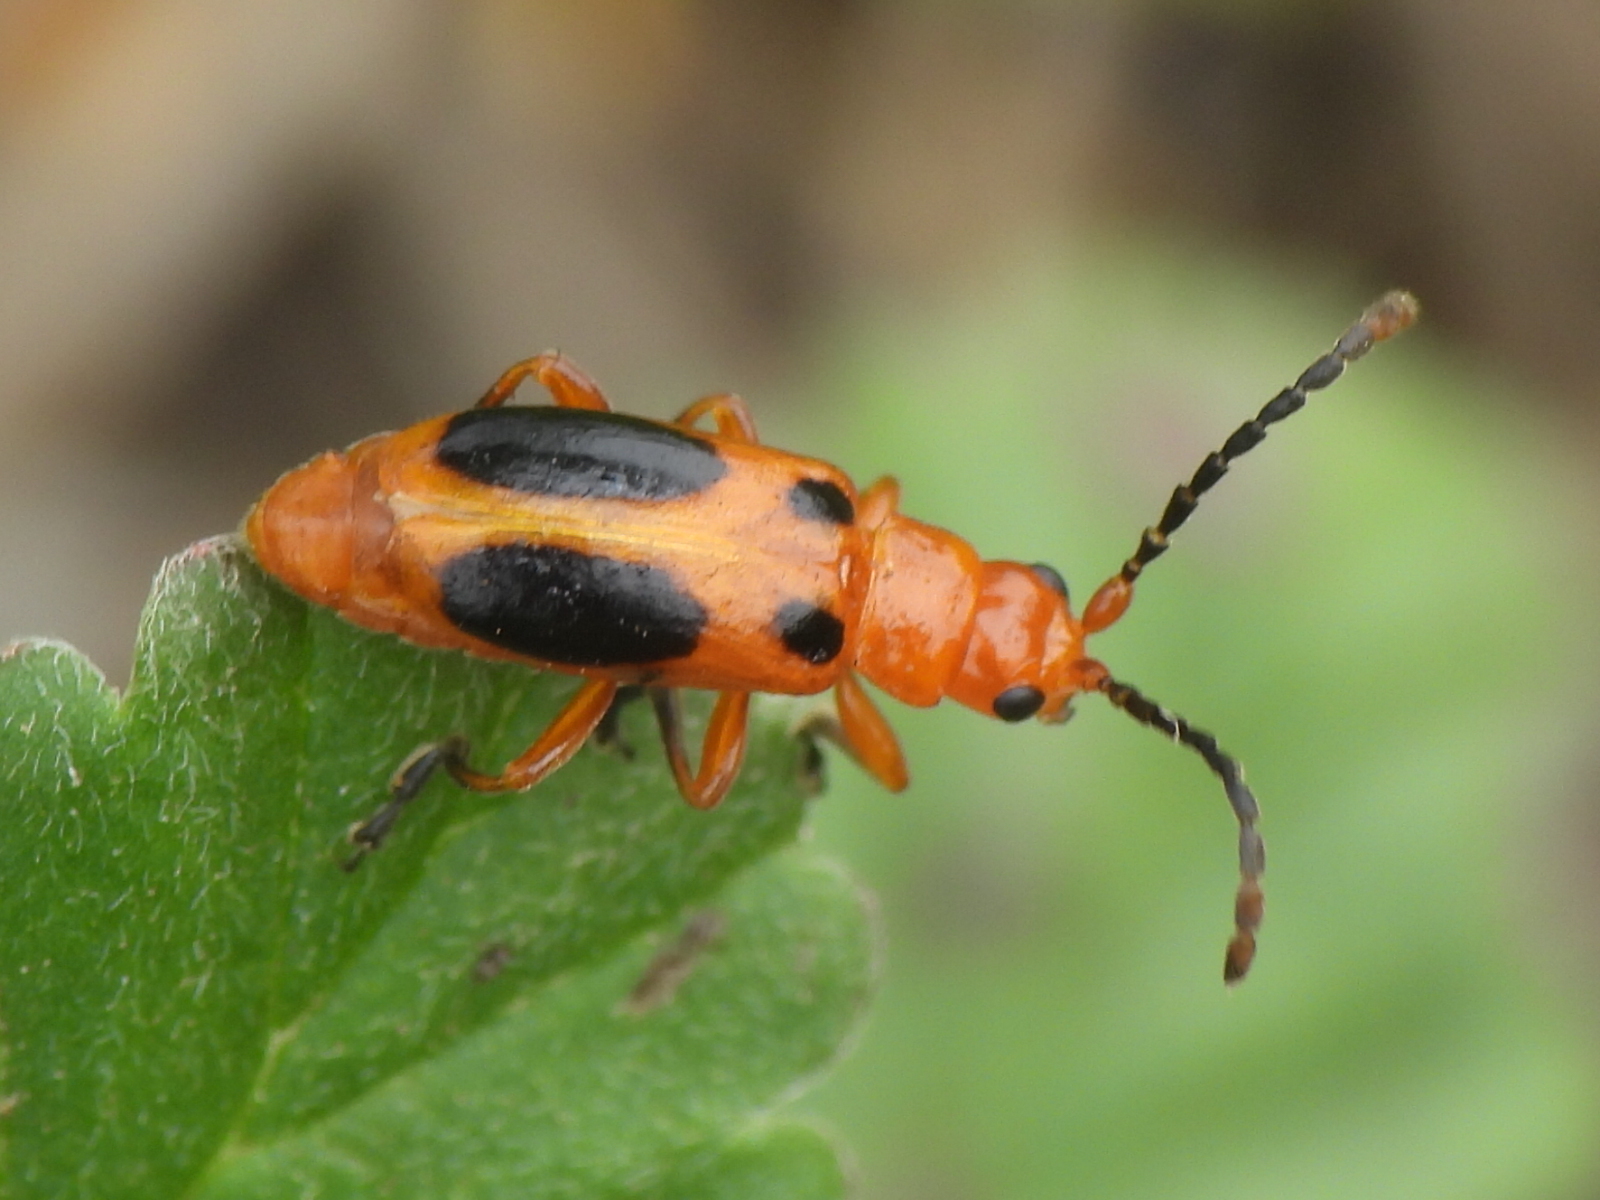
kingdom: Animalia
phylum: Arthropoda
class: Insecta
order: Coleoptera
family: Chrysomelidae
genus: Phyllobrotica
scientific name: Phyllobrotica sororia
